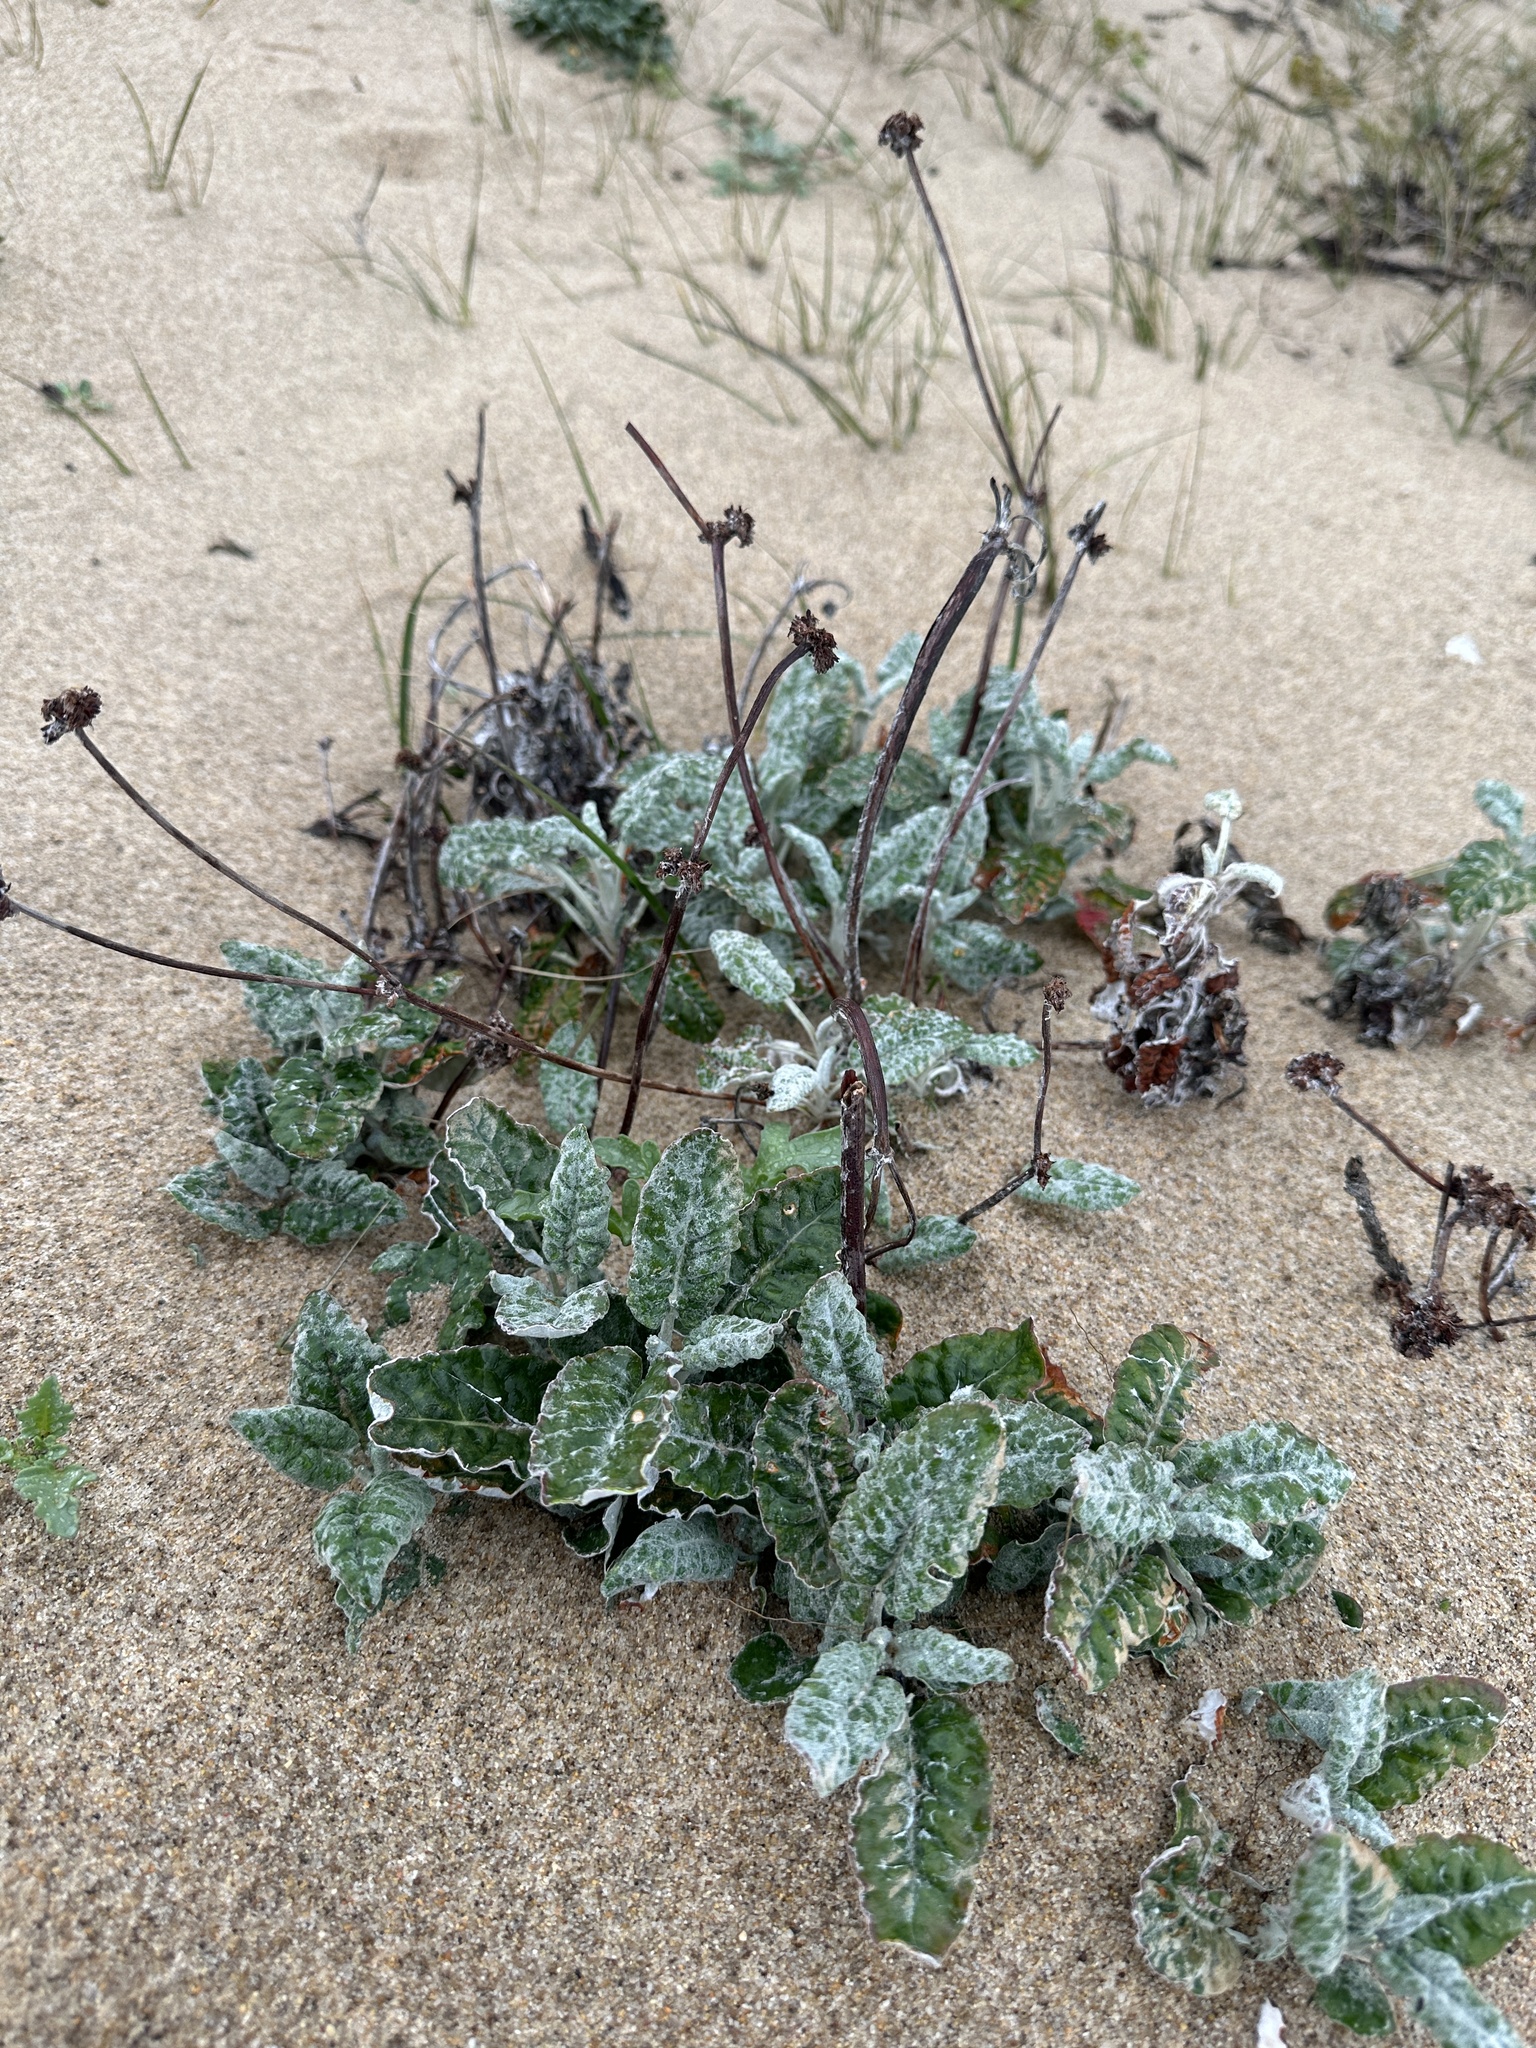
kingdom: Plantae
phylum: Tracheophyta
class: Magnoliopsida
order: Caryophyllales
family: Polygonaceae
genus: Eriogonum
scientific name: Eriogonum latifolium
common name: Seaside wild buckwheat
